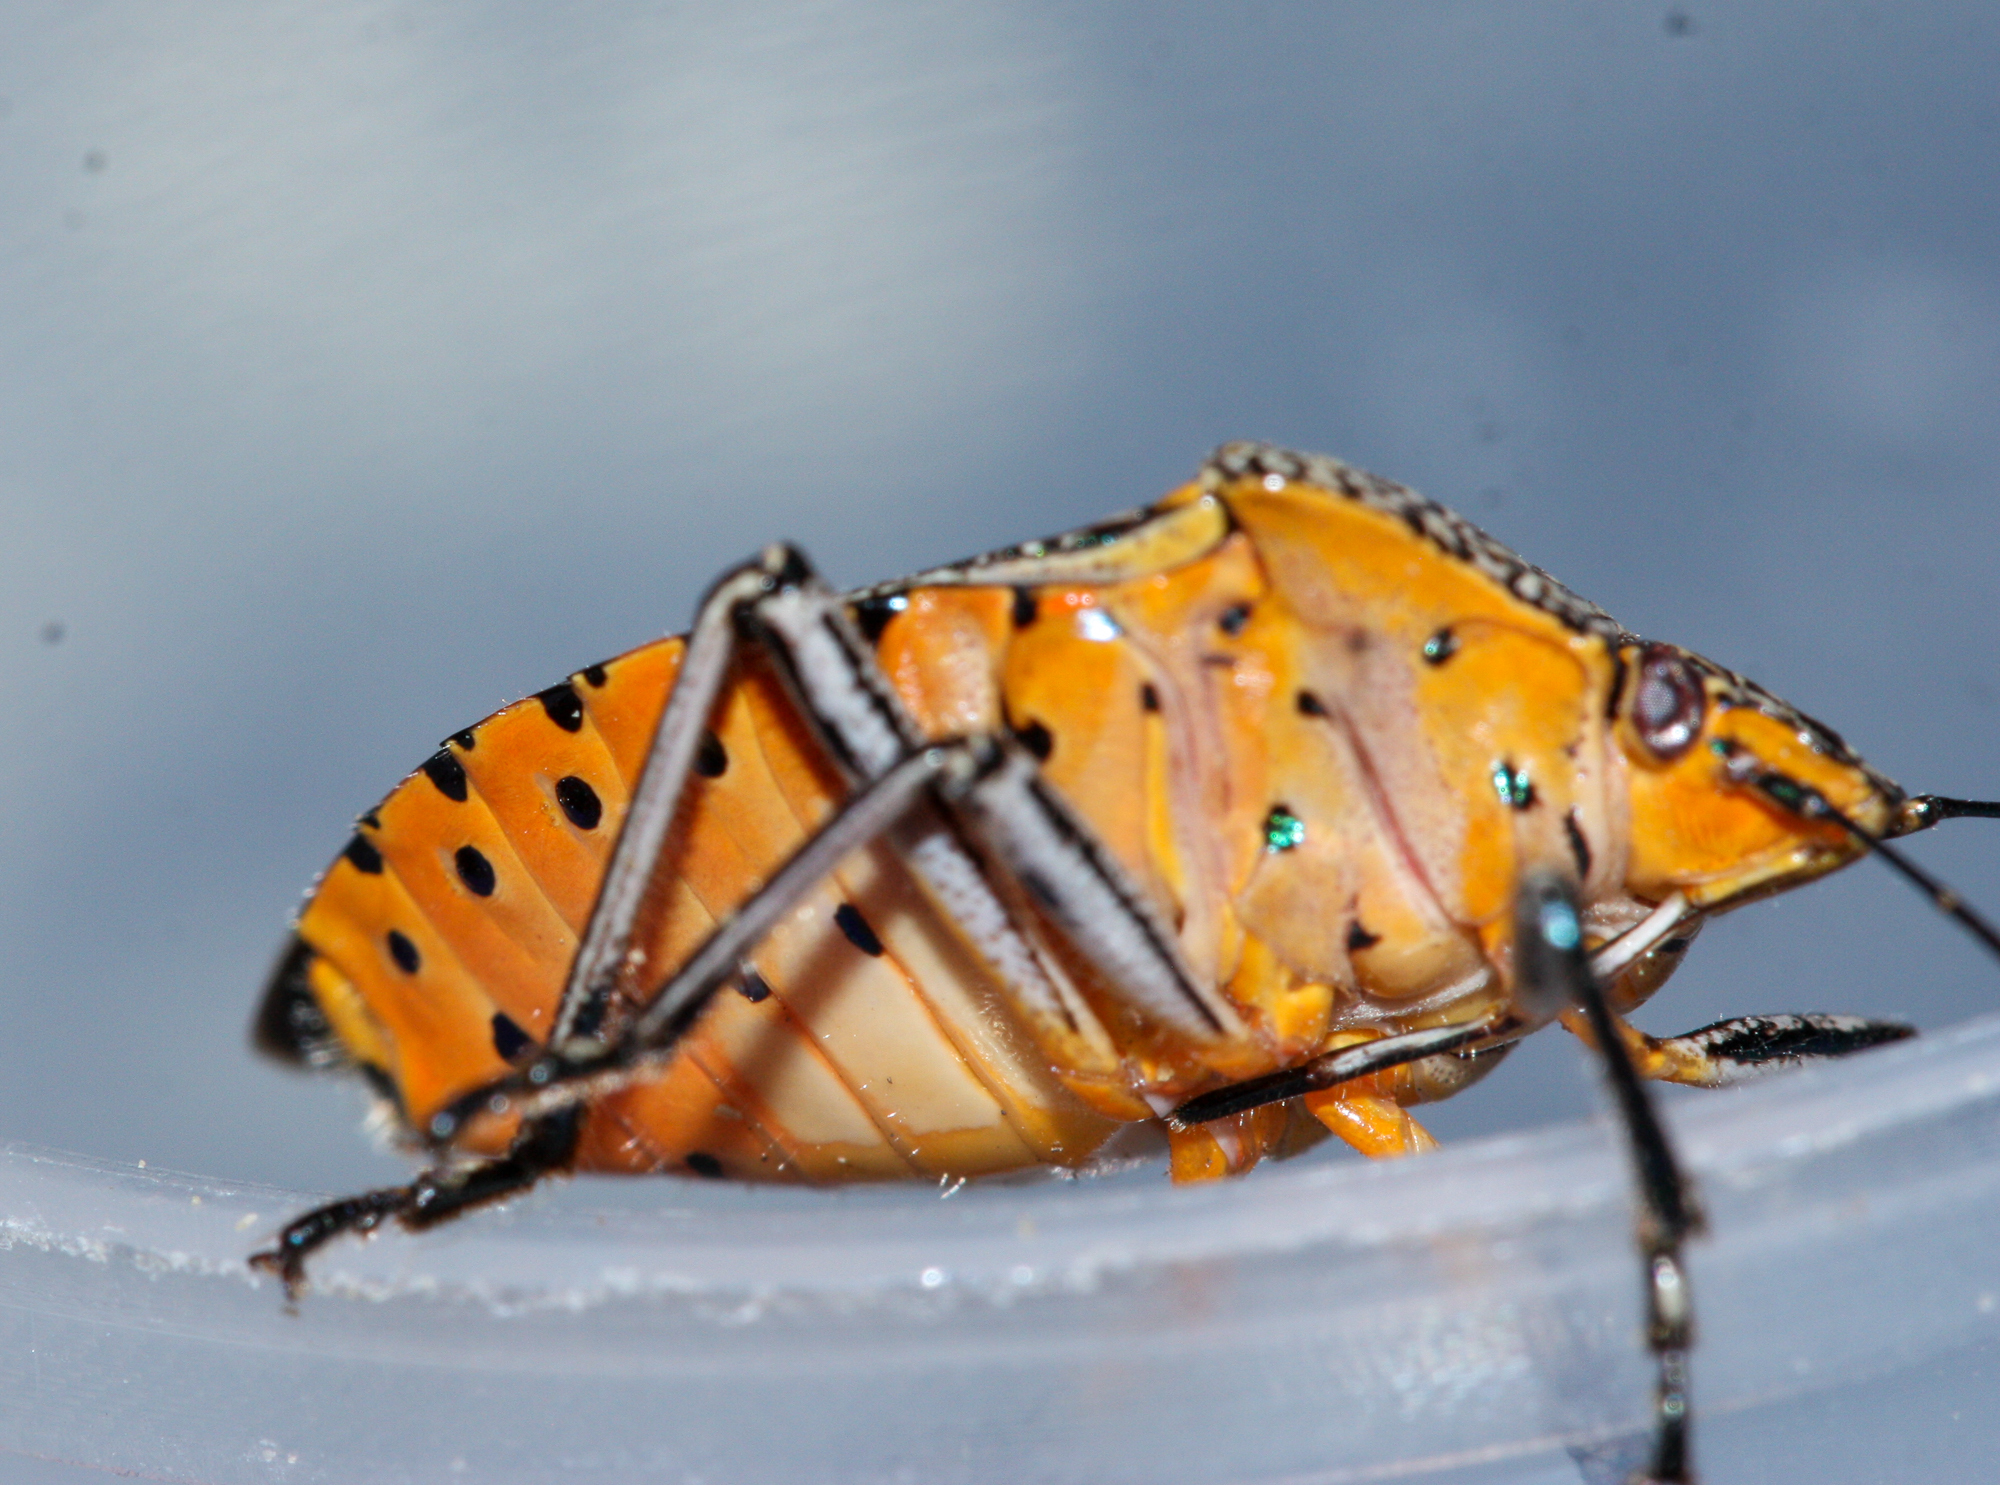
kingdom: Animalia
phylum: Arthropoda
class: Insecta
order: Hemiptera
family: Pentatomidae
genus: Pellaea
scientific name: Pellaea stictica
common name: Stink bug
